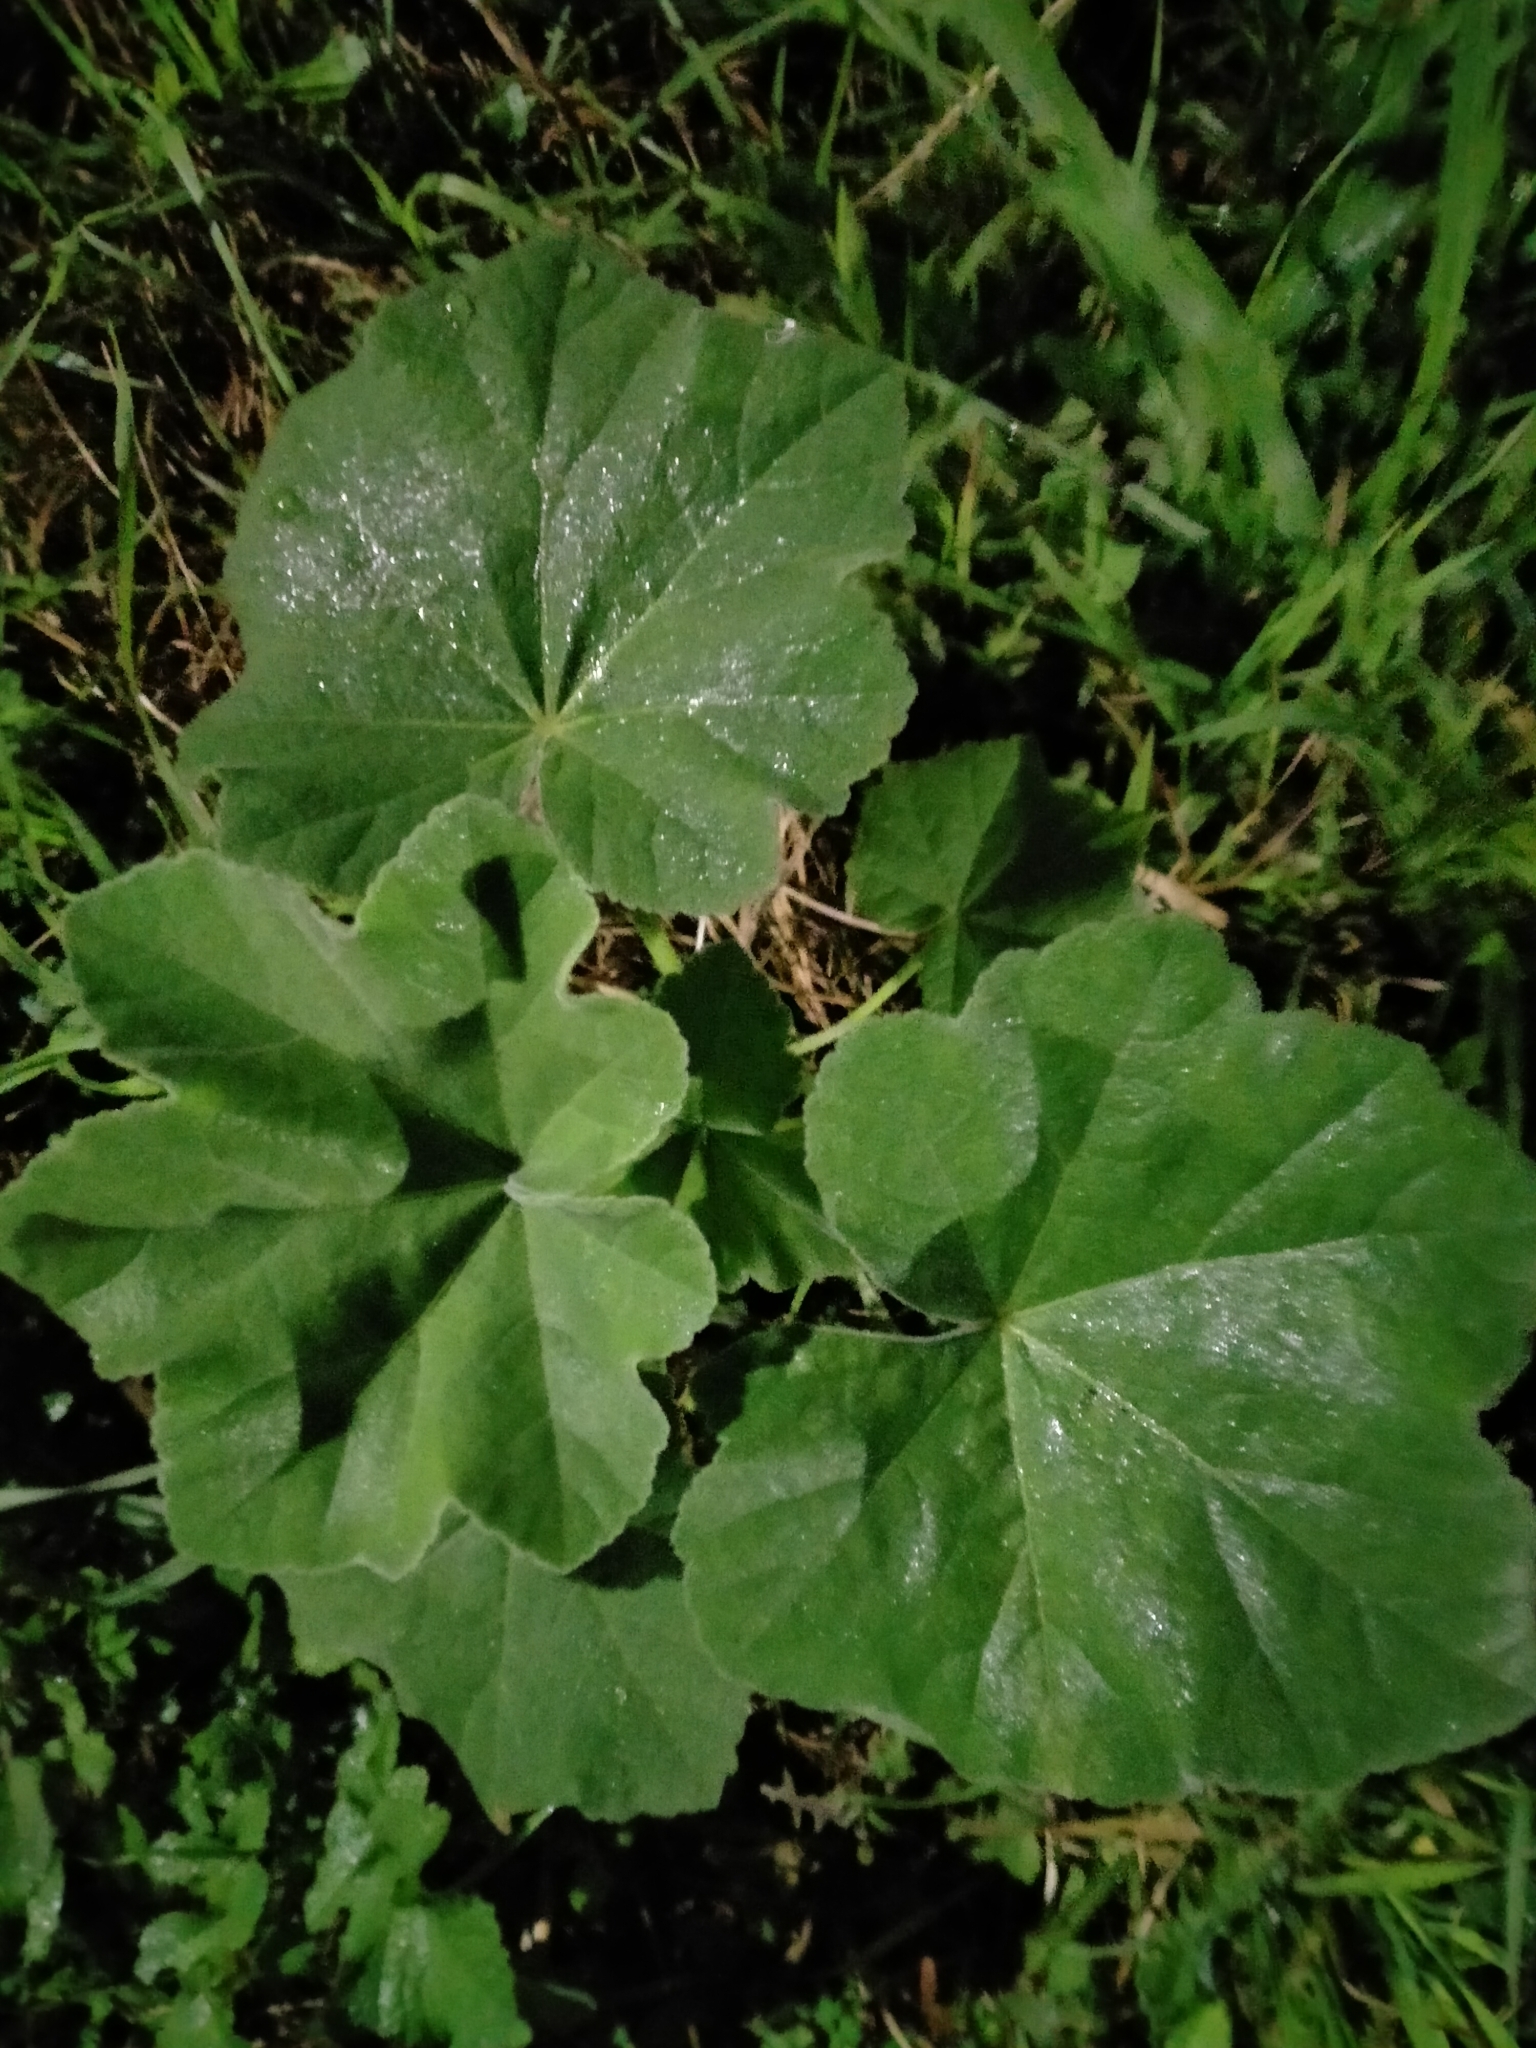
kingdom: Plantae
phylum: Tracheophyta
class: Magnoliopsida
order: Malvales
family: Malvaceae
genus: Malva
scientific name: Malva arborea
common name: Tree mallow
